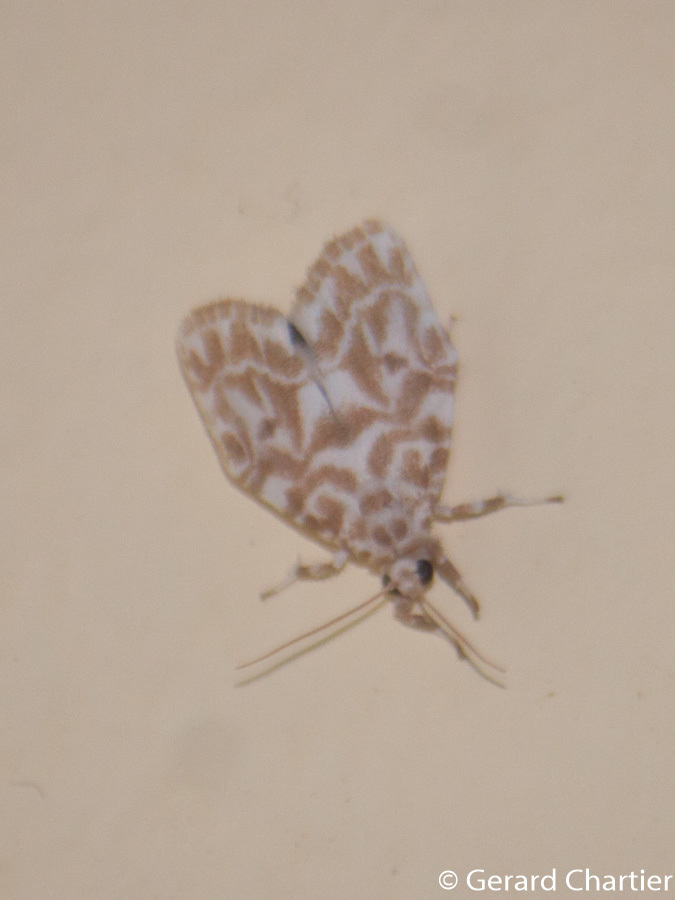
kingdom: Animalia
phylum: Arthropoda
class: Insecta
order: Lepidoptera
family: Erebidae
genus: Cabarda
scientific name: Cabarda sequens
